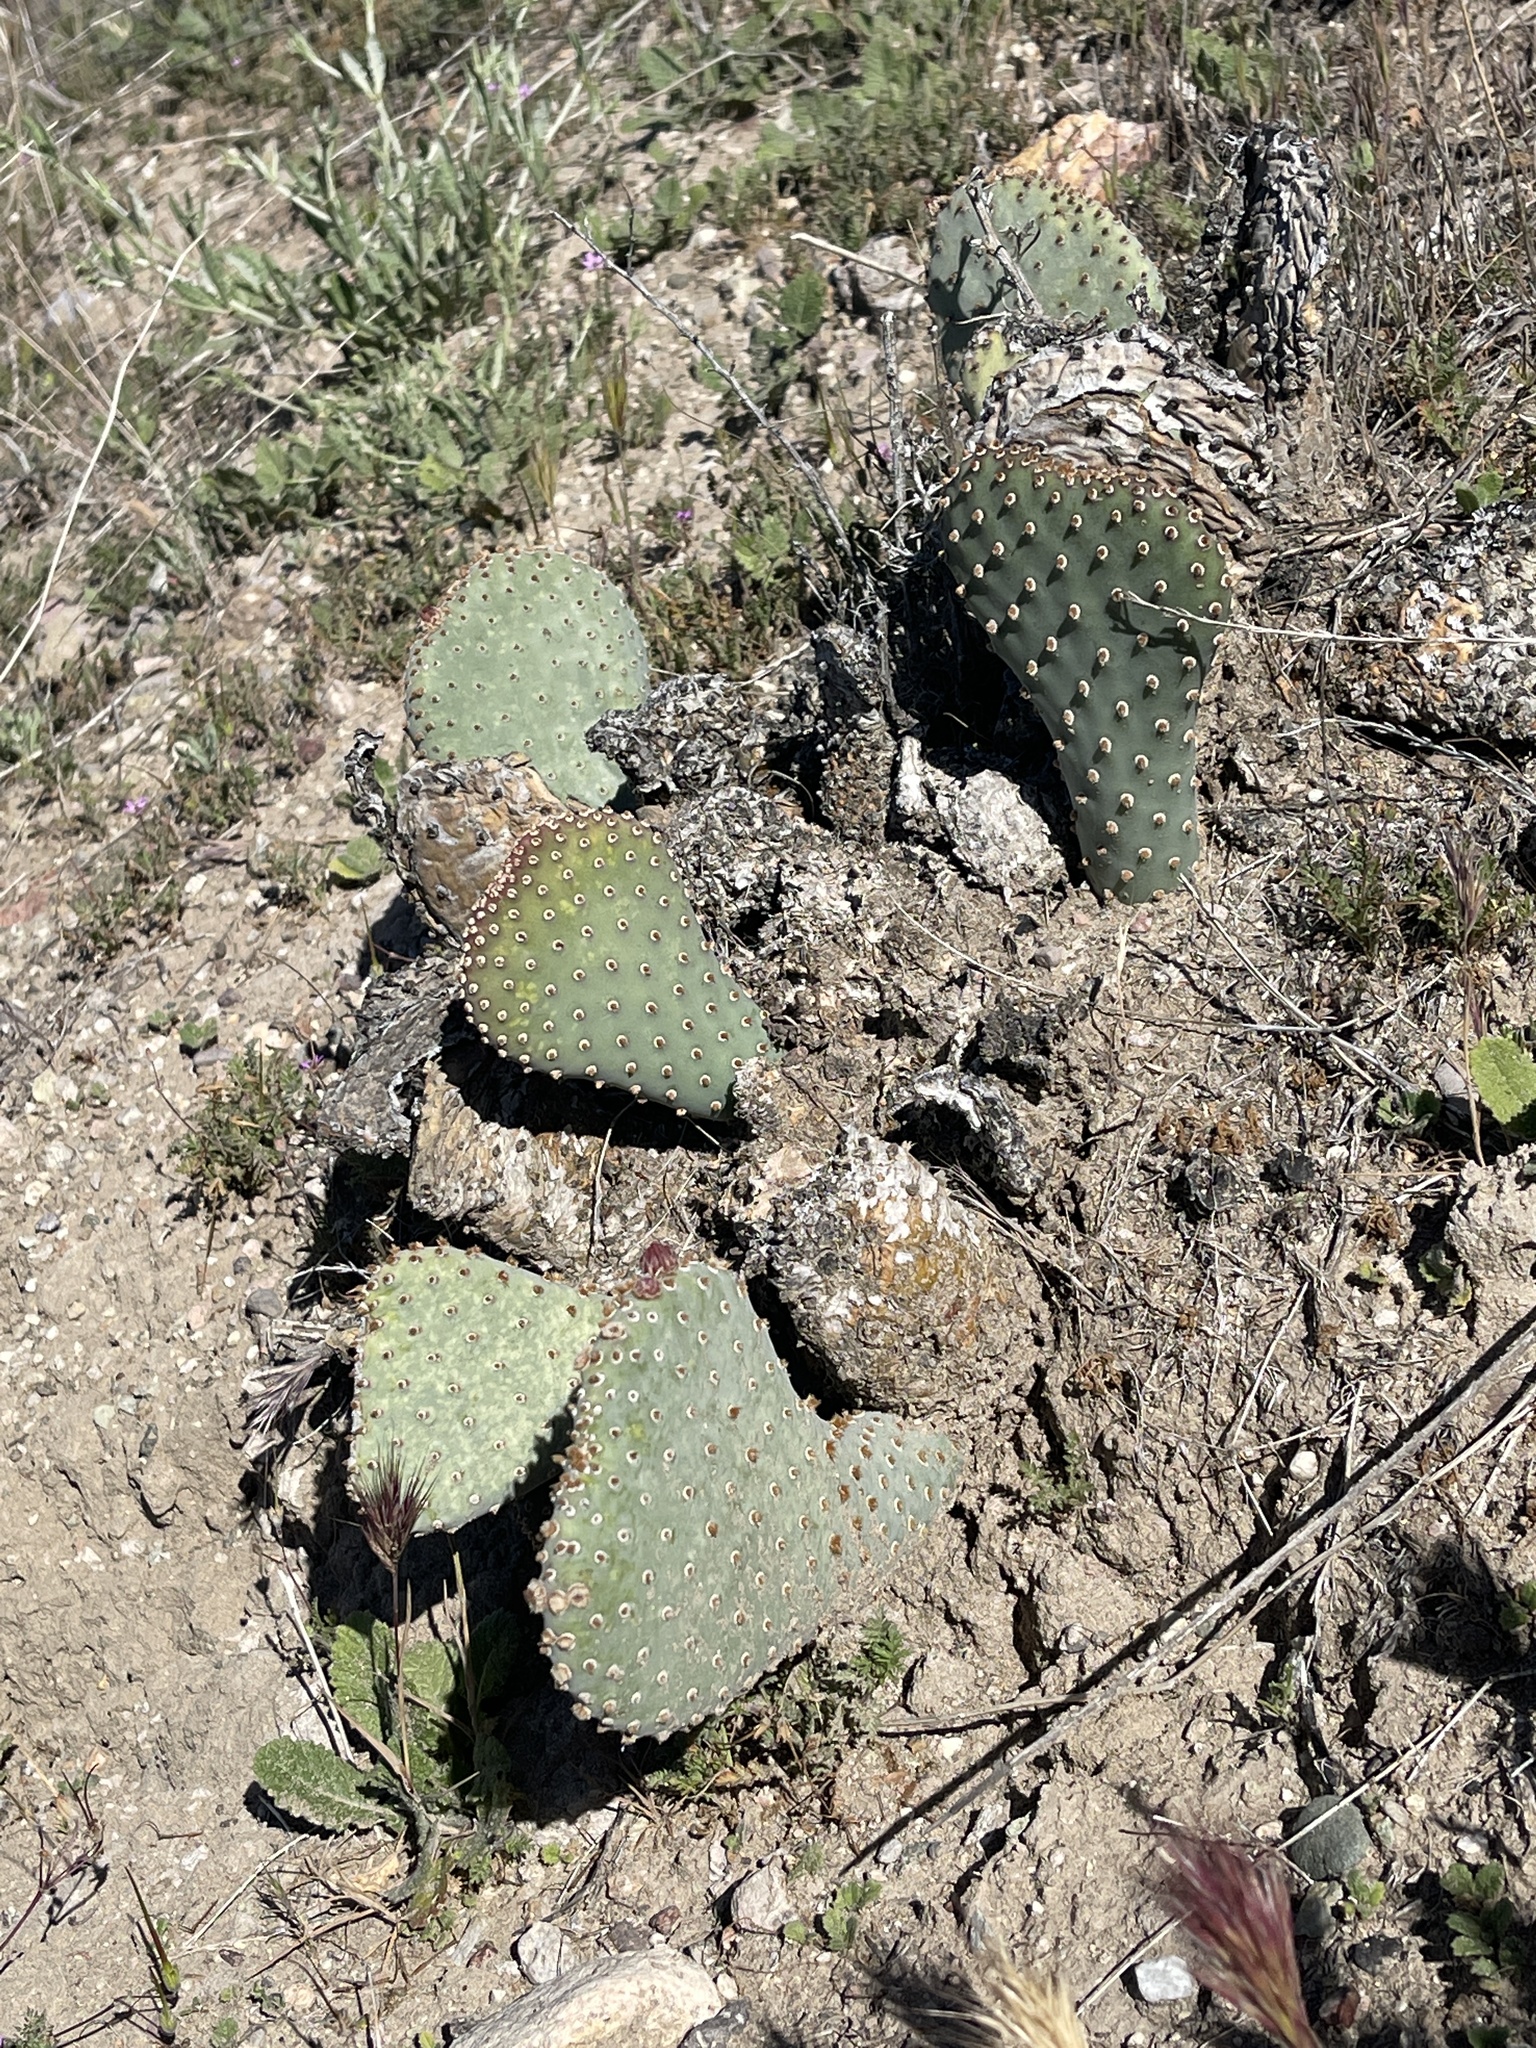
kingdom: Plantae
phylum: Tracheophyta
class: Magnoliopsida
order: Caryophyllales
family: Cactaceae
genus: Opuntia
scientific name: Opuntia basilaris
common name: Beavertail prickly-pear
